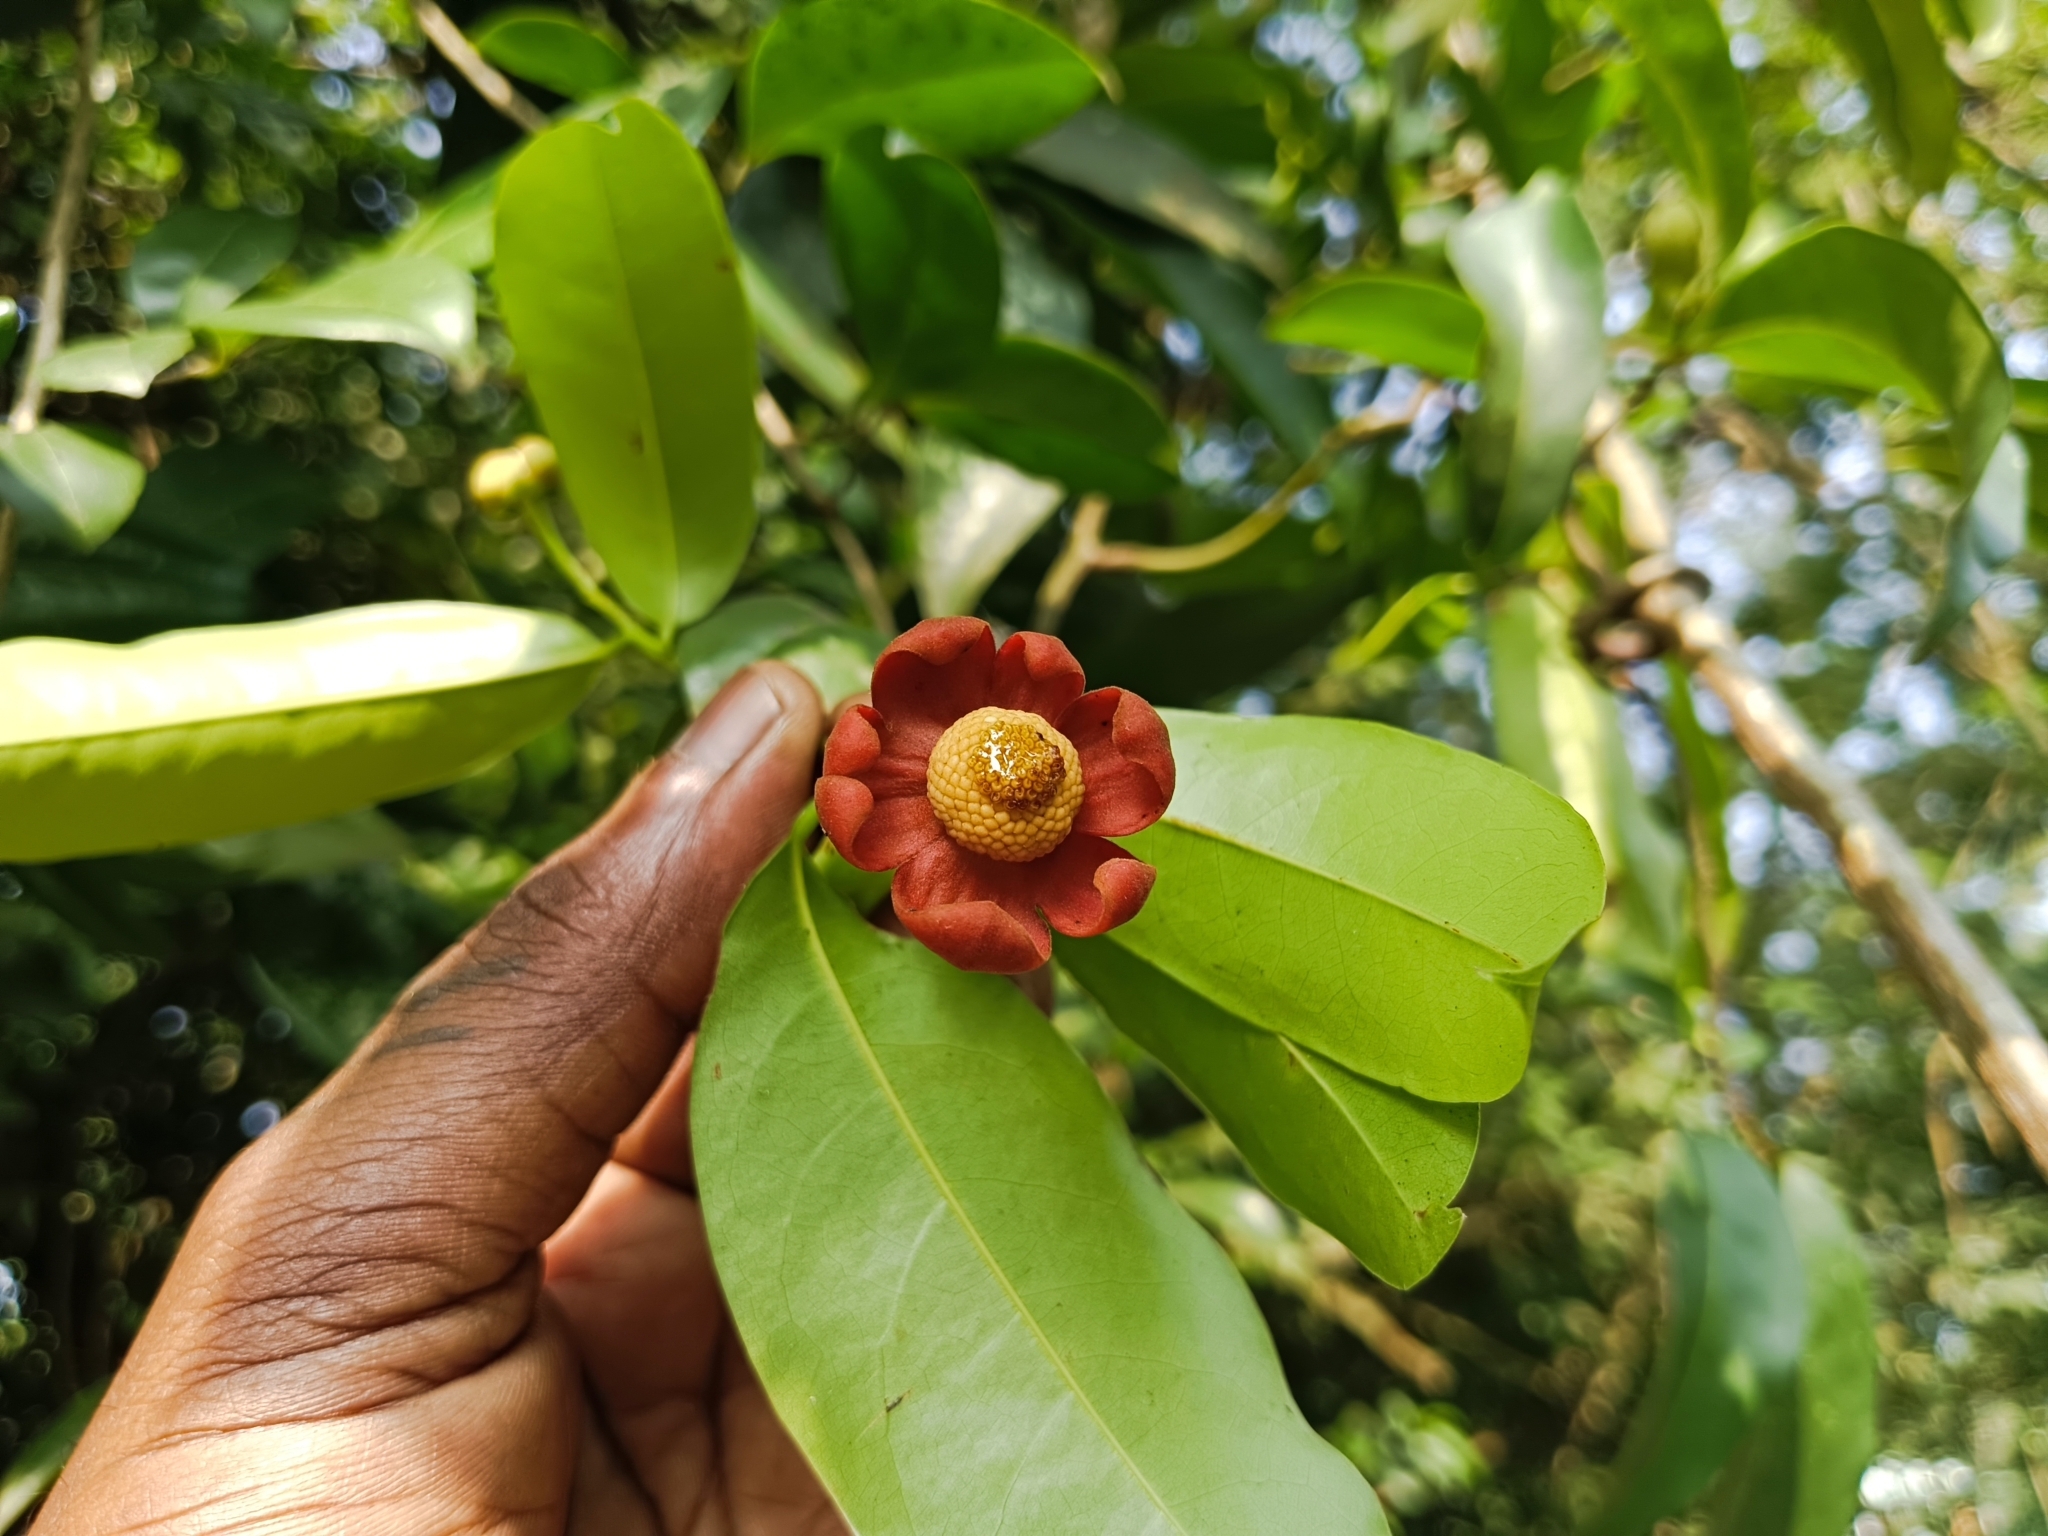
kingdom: Plantae
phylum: Tracheophyta
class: Magnoliopsida
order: Magnoliales
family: Annonaceae
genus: Uvaria
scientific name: Uvaria narum
